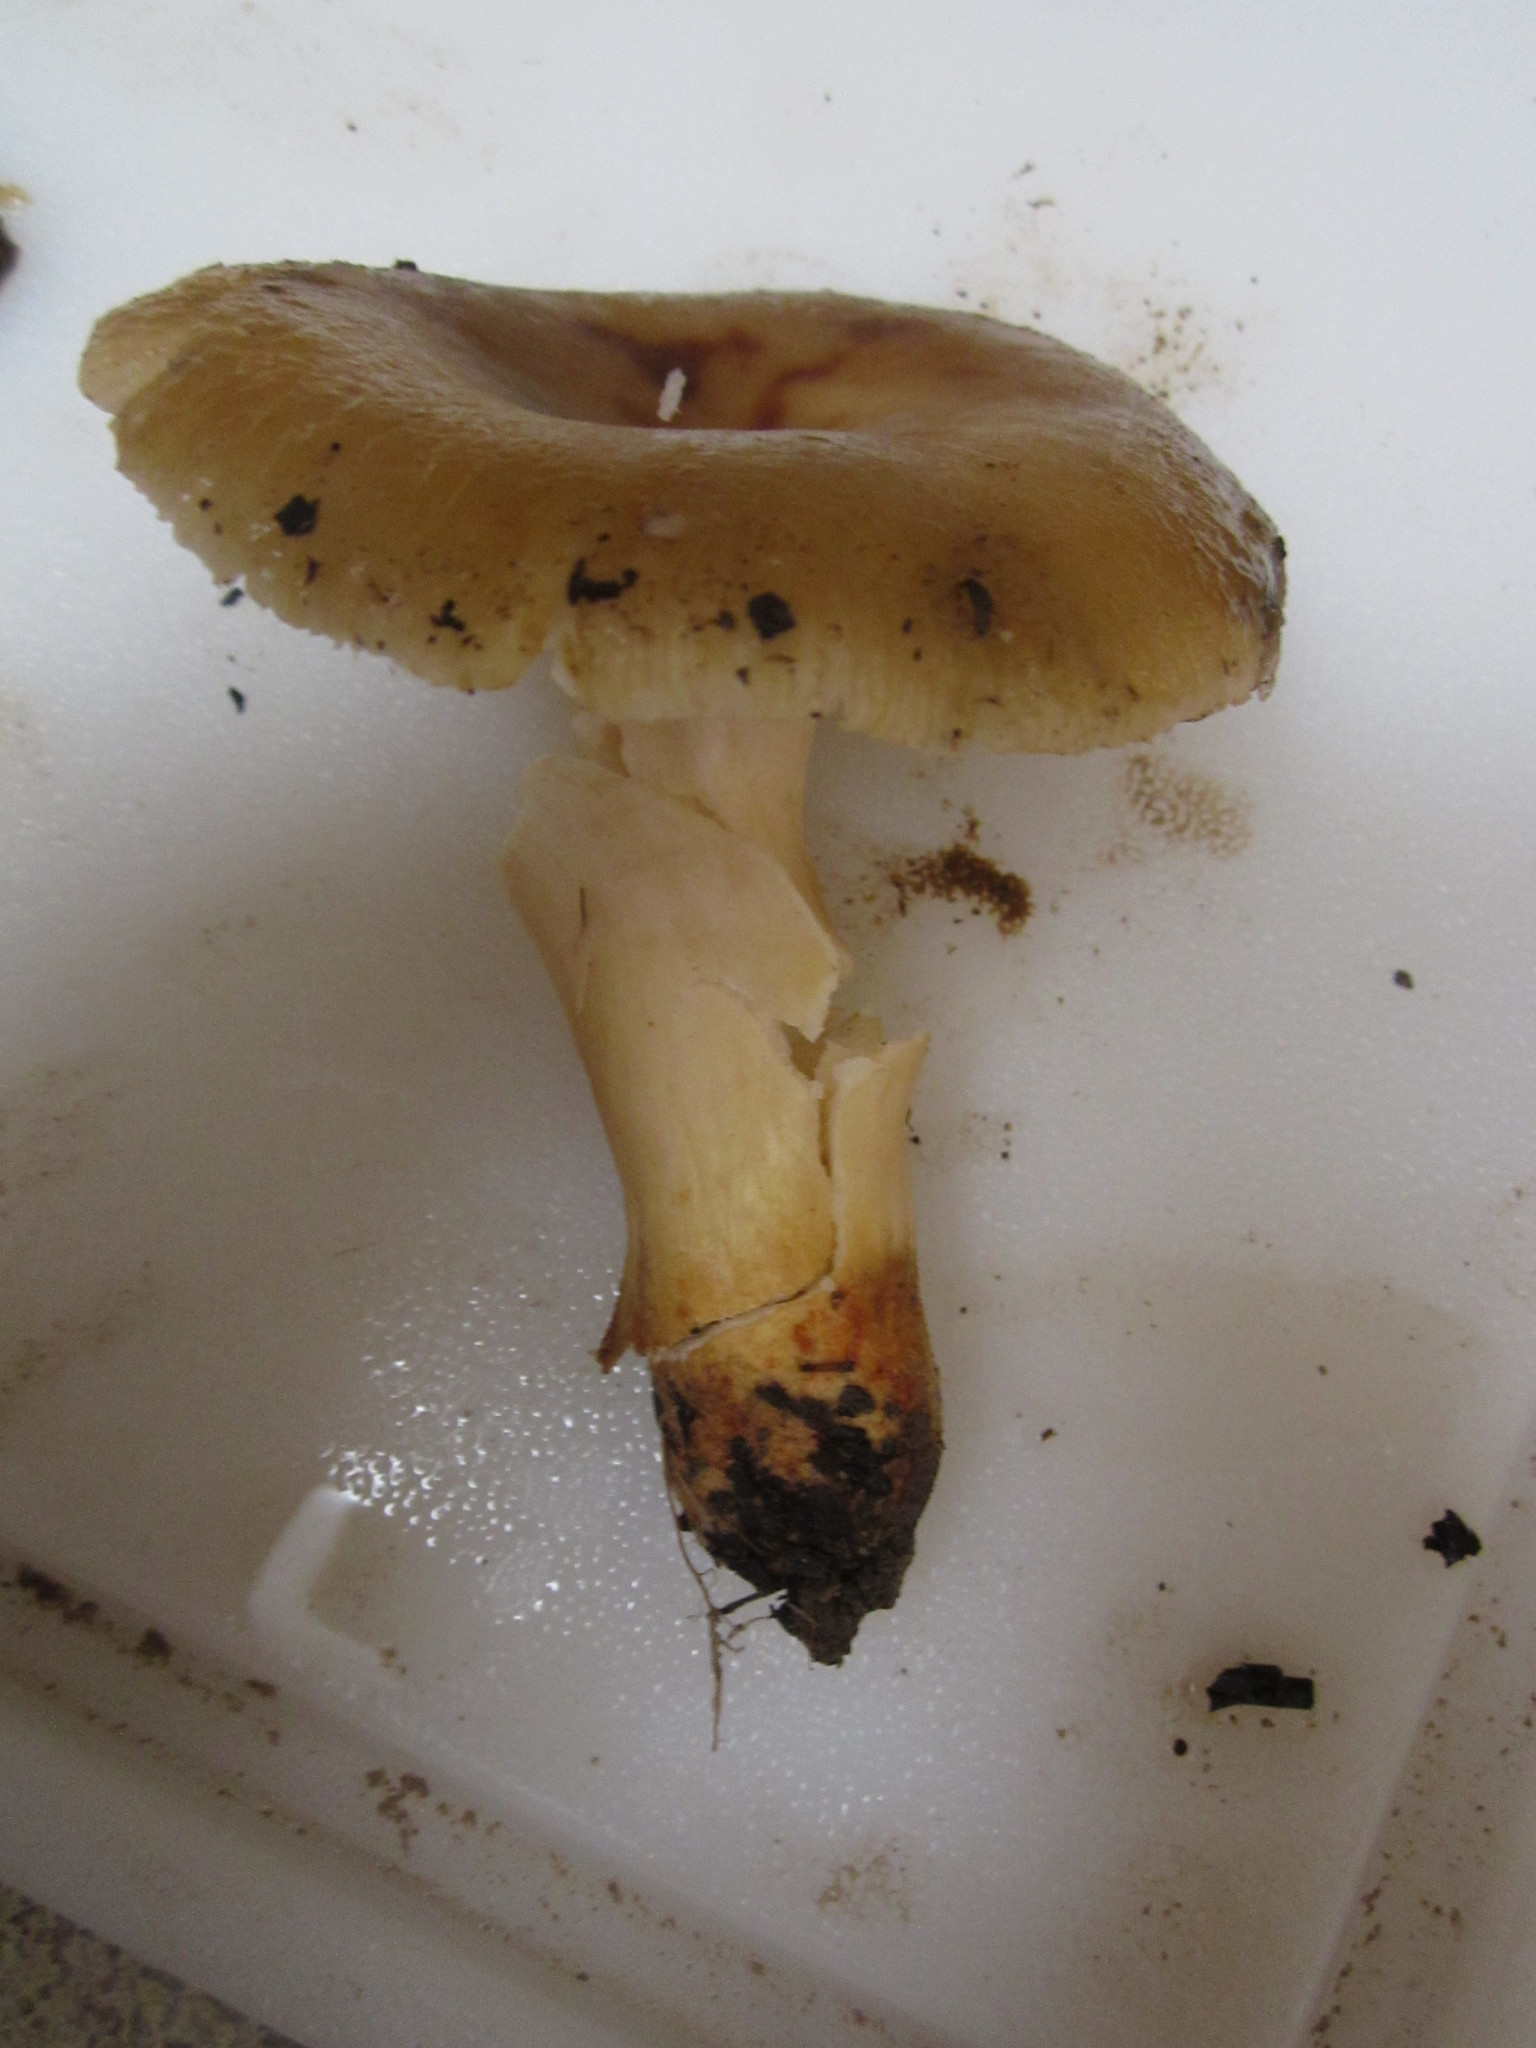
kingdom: Fungi
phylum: Basidiomycota
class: Agaricomycetes
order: Russulales
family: Russulaceae
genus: Russula
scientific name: Russula cerolens
